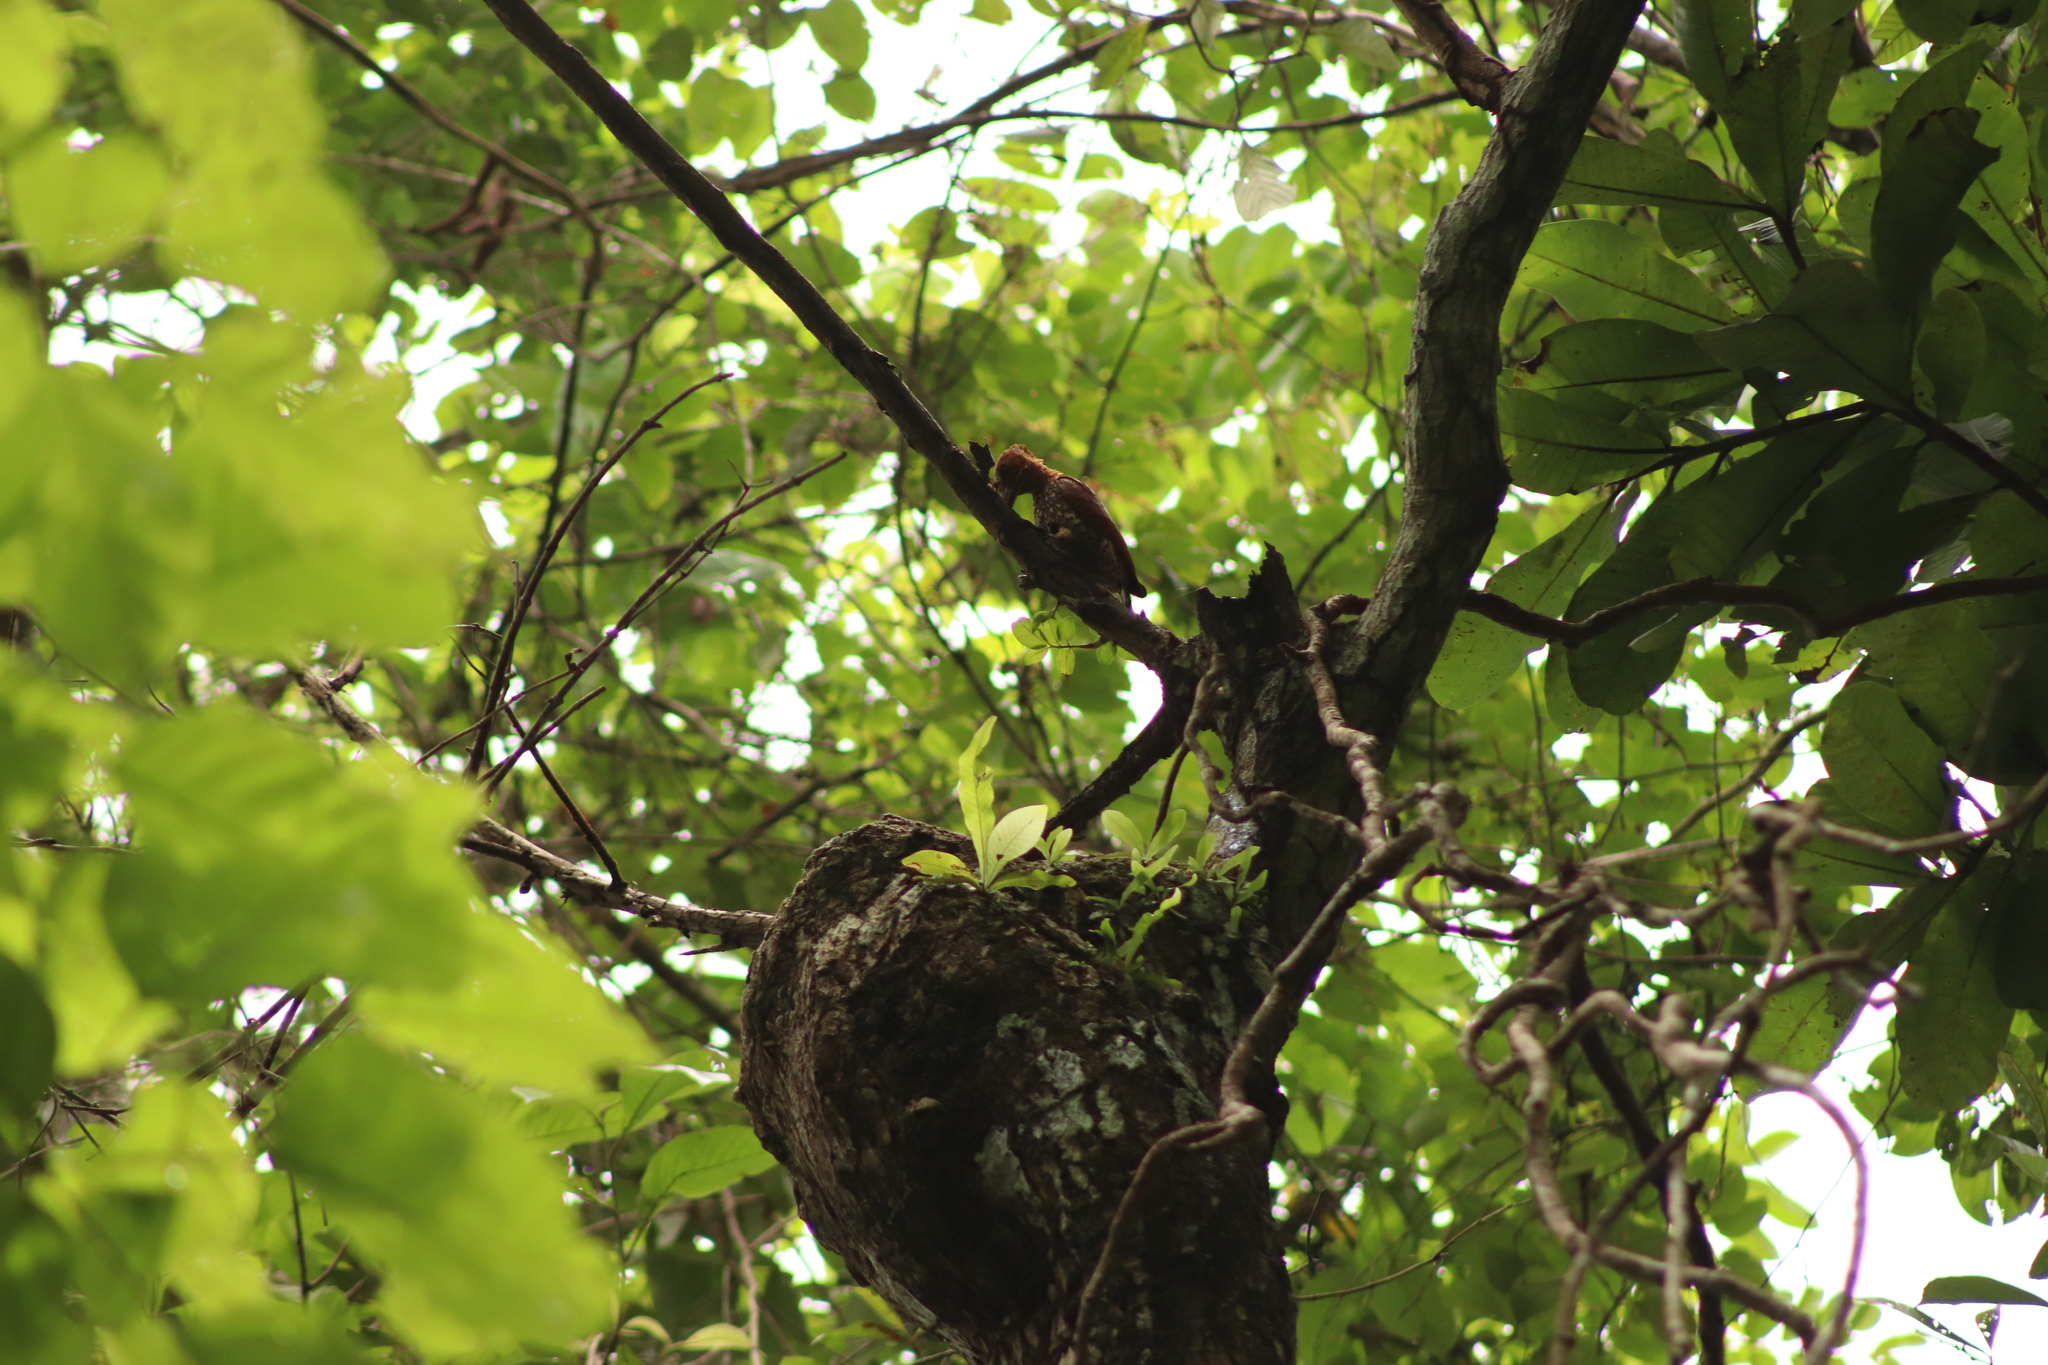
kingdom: Animalia
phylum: Chordata
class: Aves
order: Piciformes
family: Picidae
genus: Celeus
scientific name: Celeus loricatus
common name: Cinnamon woodpecker
